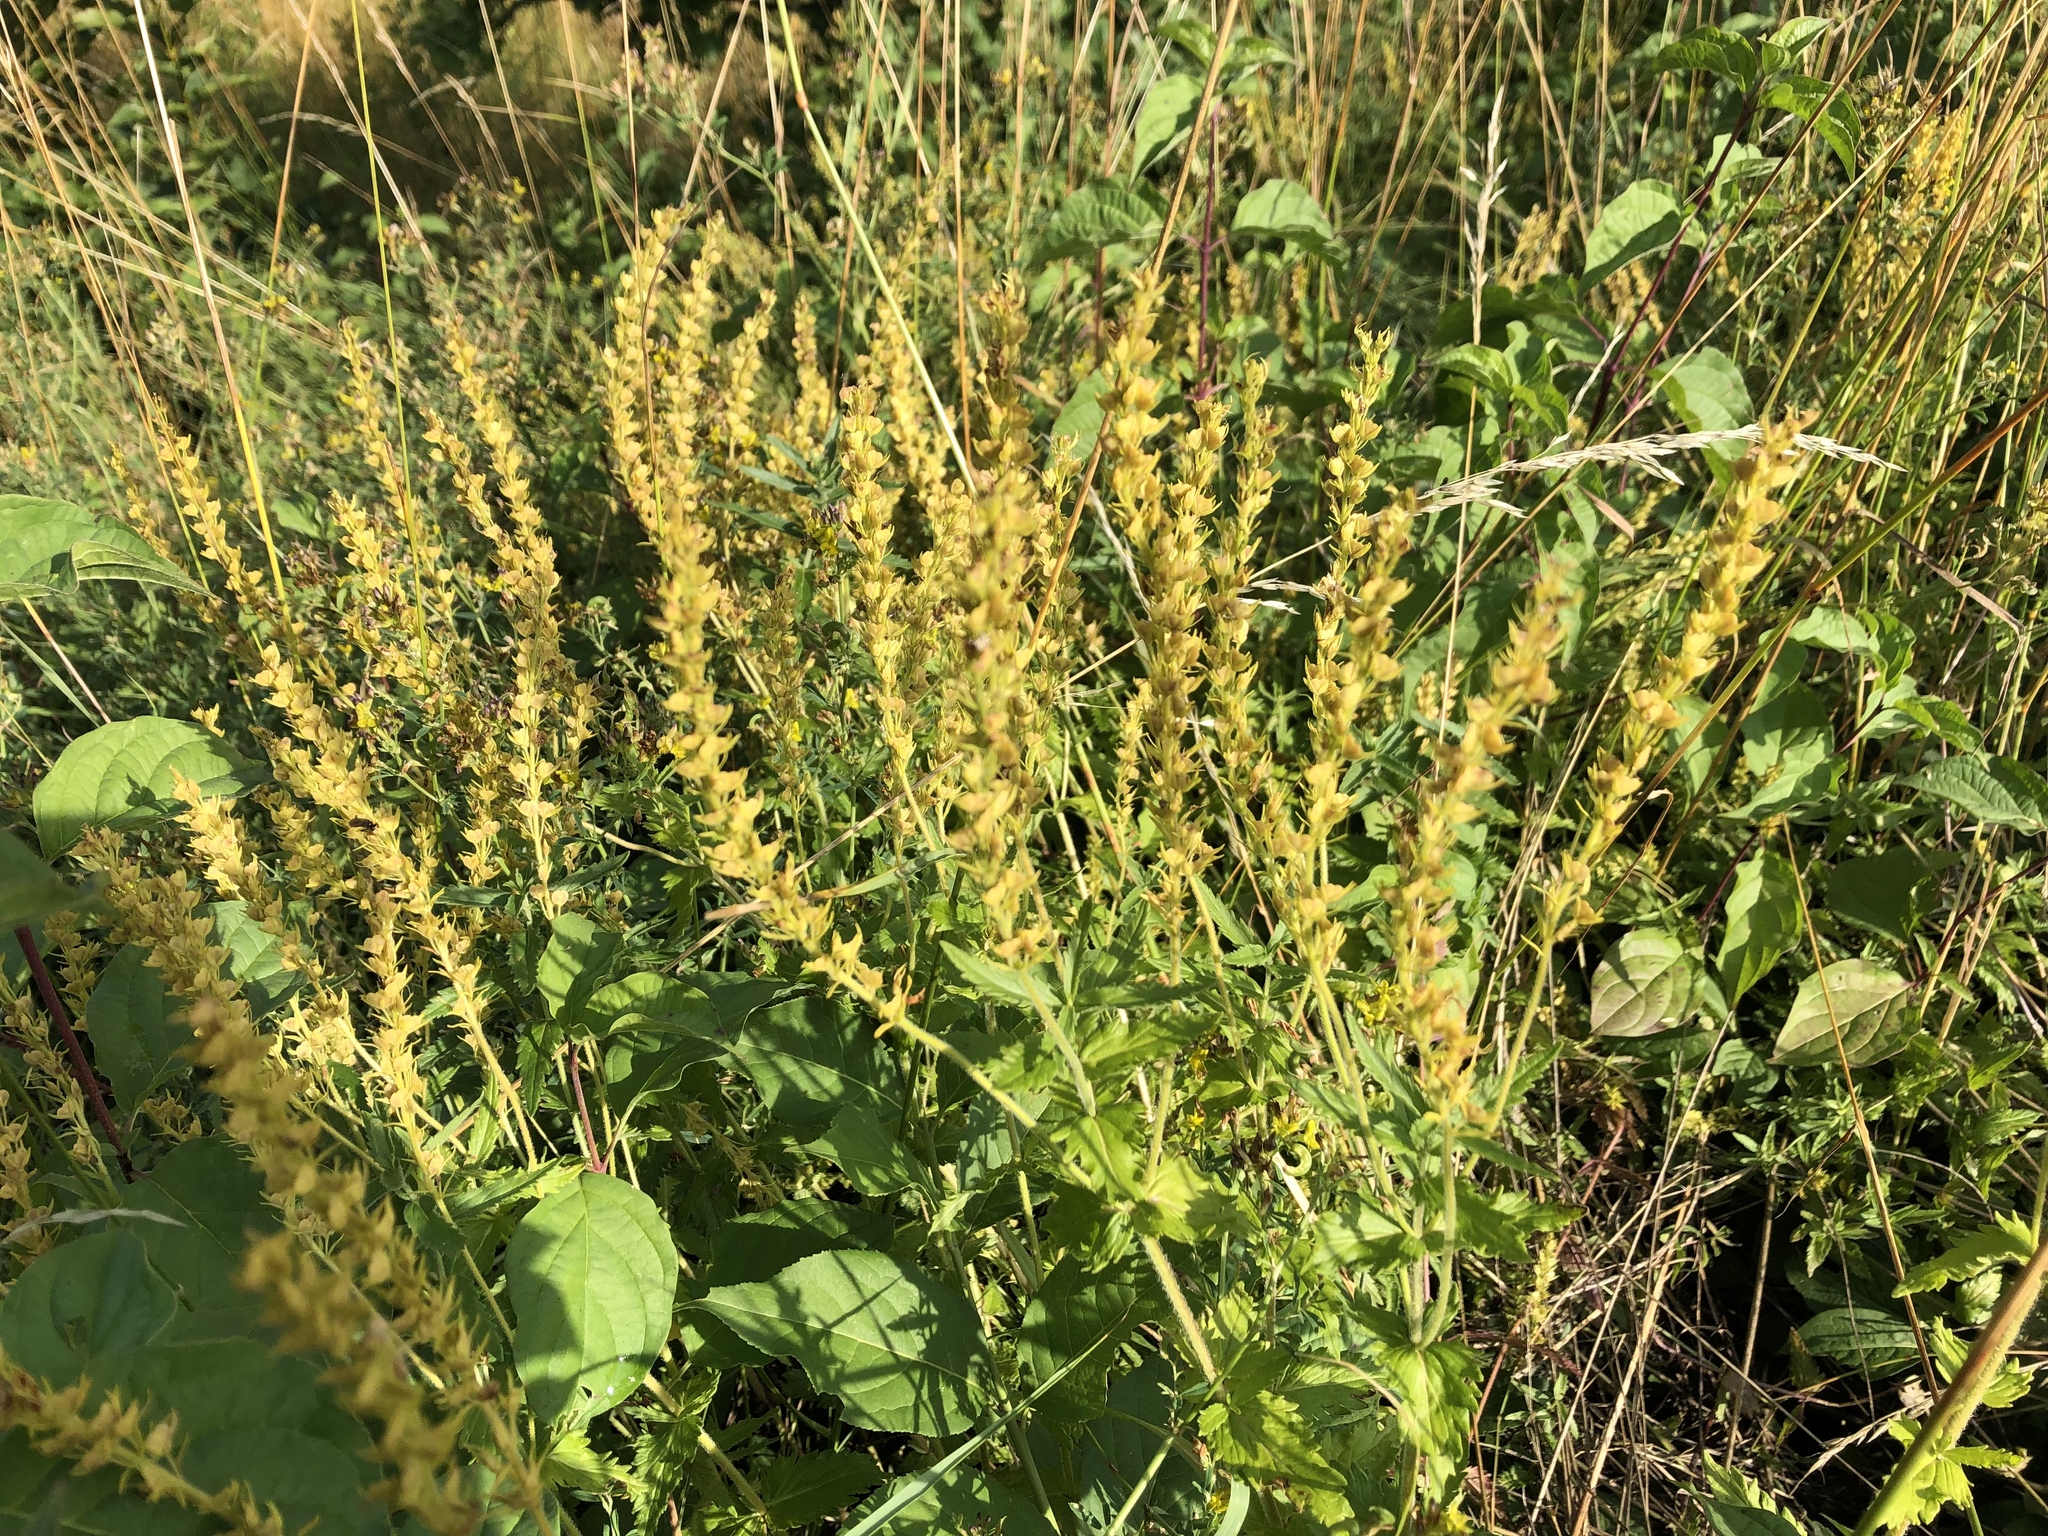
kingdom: Plantae
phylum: Tracheophyta
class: Magnoliopsida
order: Lamiales
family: Plantaginaceae
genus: Veronica
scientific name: Veronica teucrium
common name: Large speedwell
